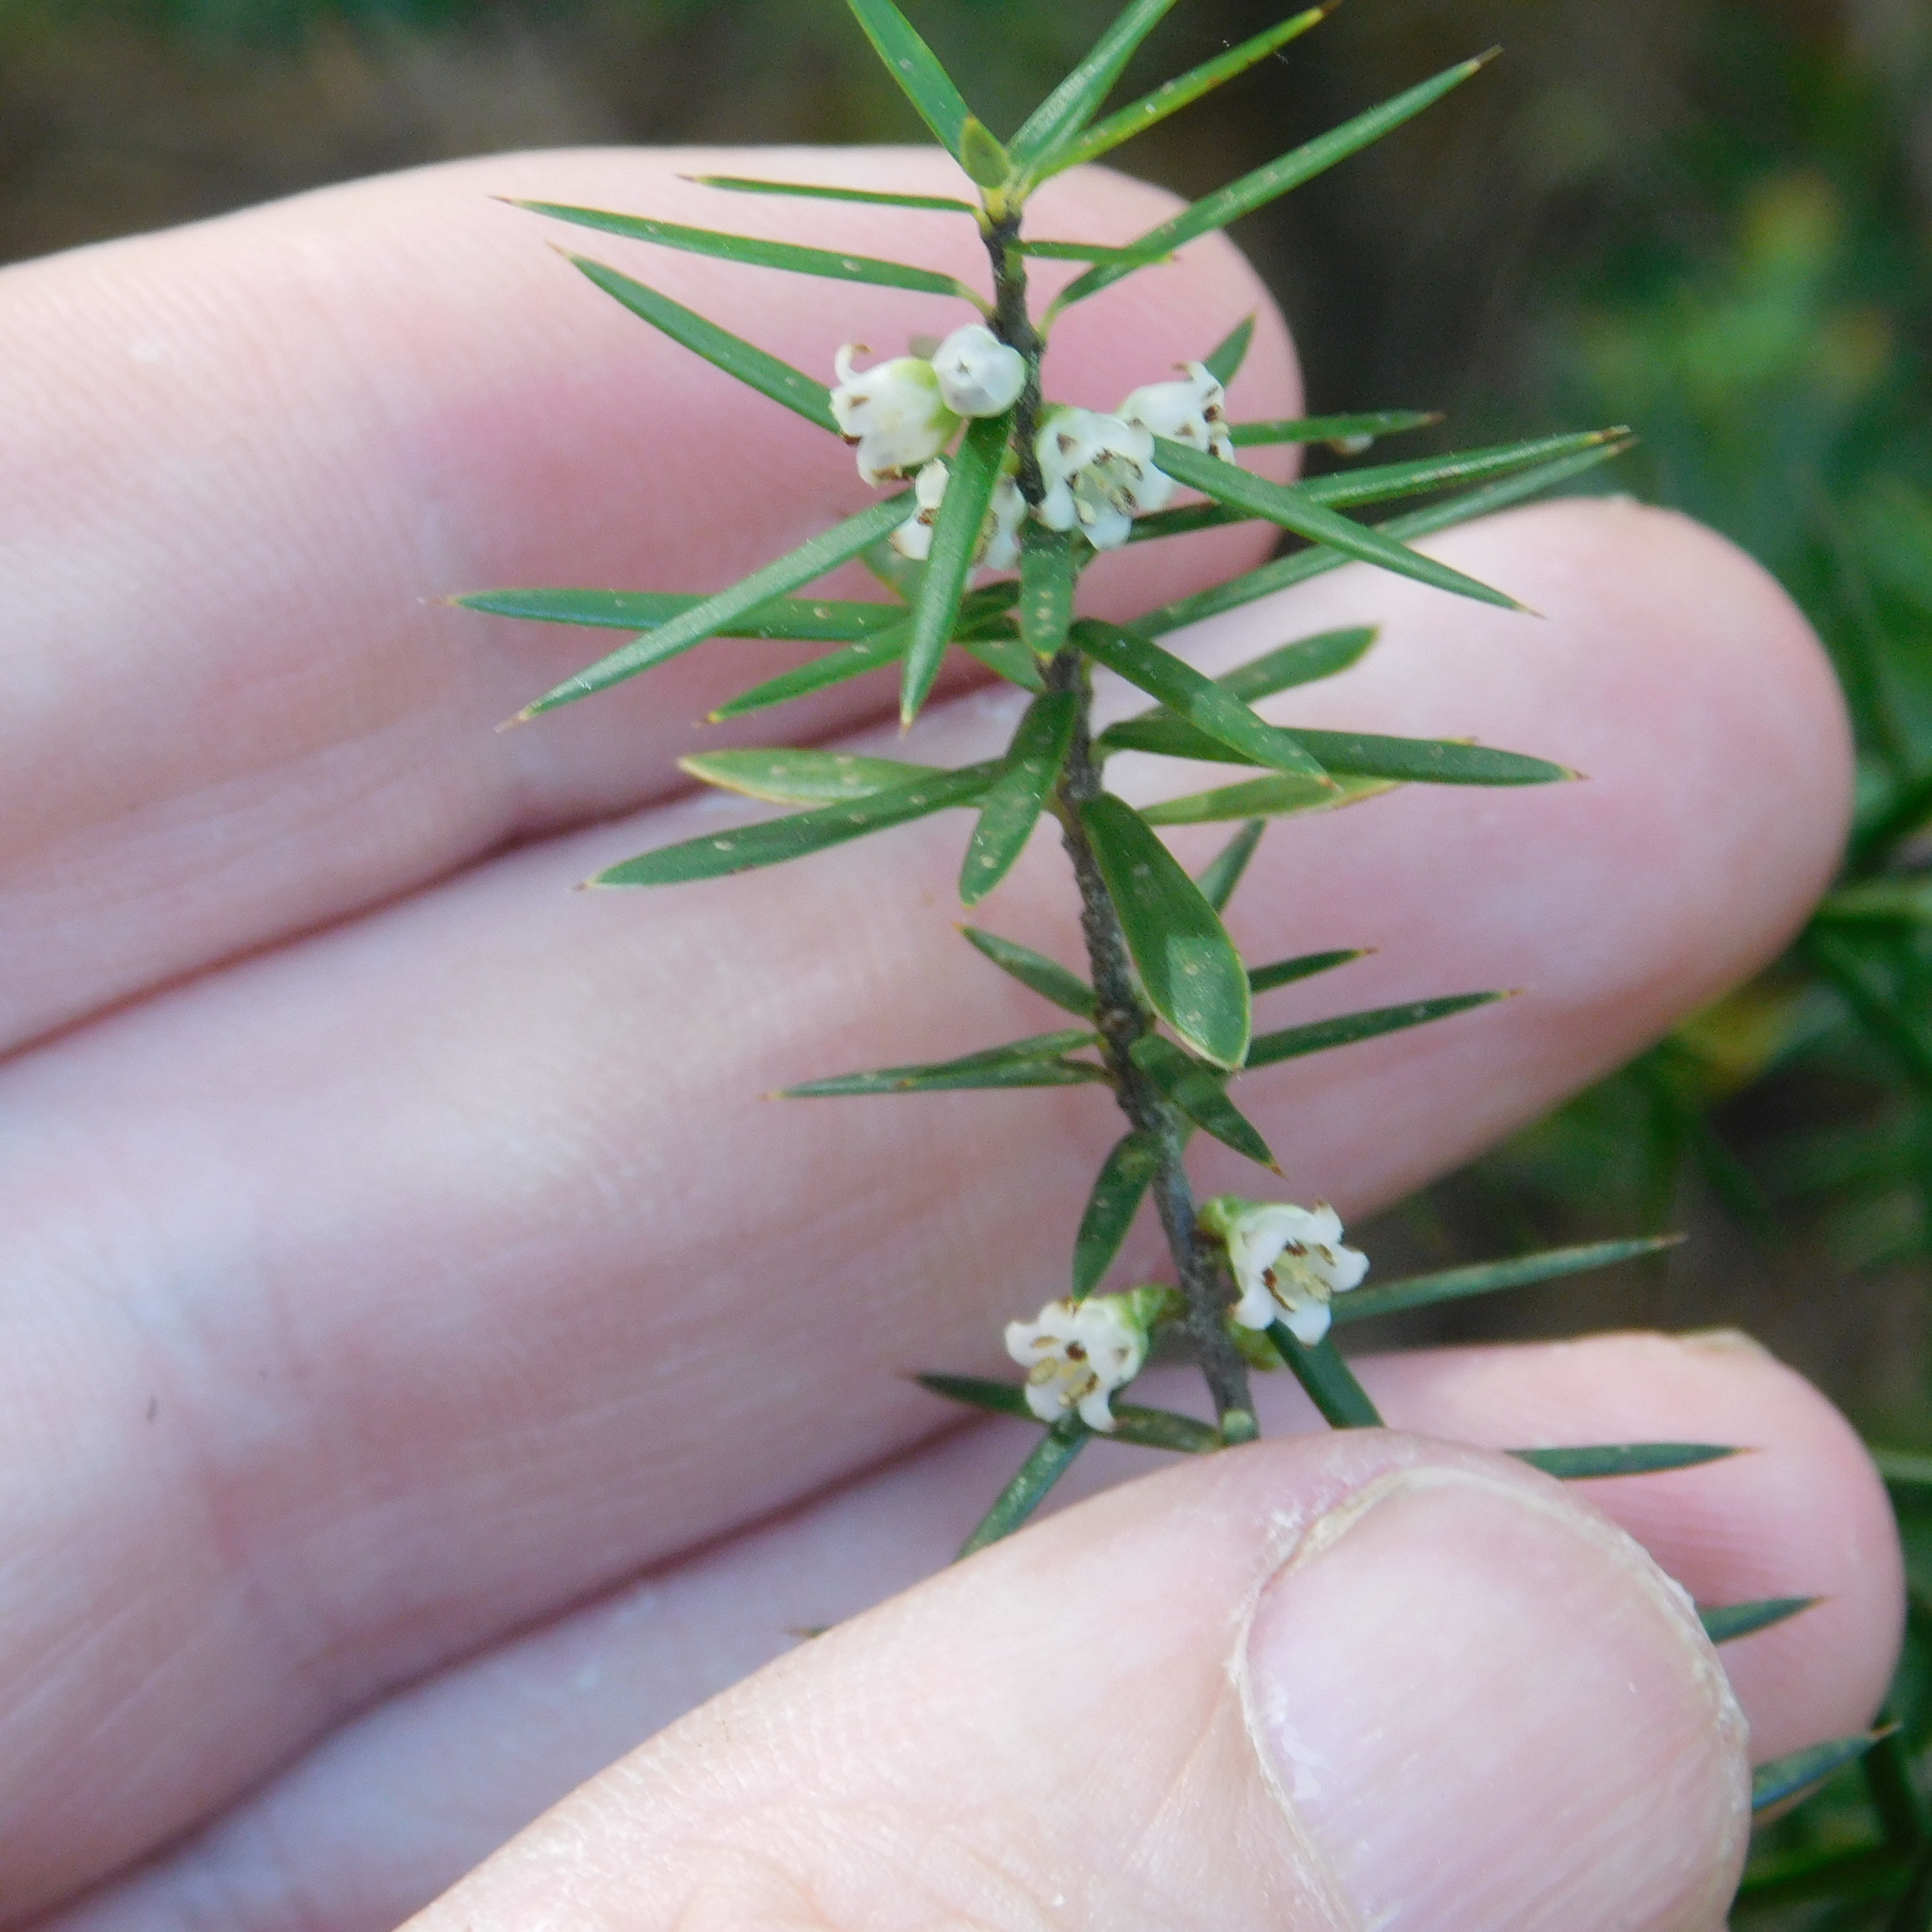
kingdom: Plantae
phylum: Tracheophyta
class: Magnoliopsida
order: Ericales
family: Ericaceae
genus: Leptecophylla
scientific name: Leptecophylla juniperina
